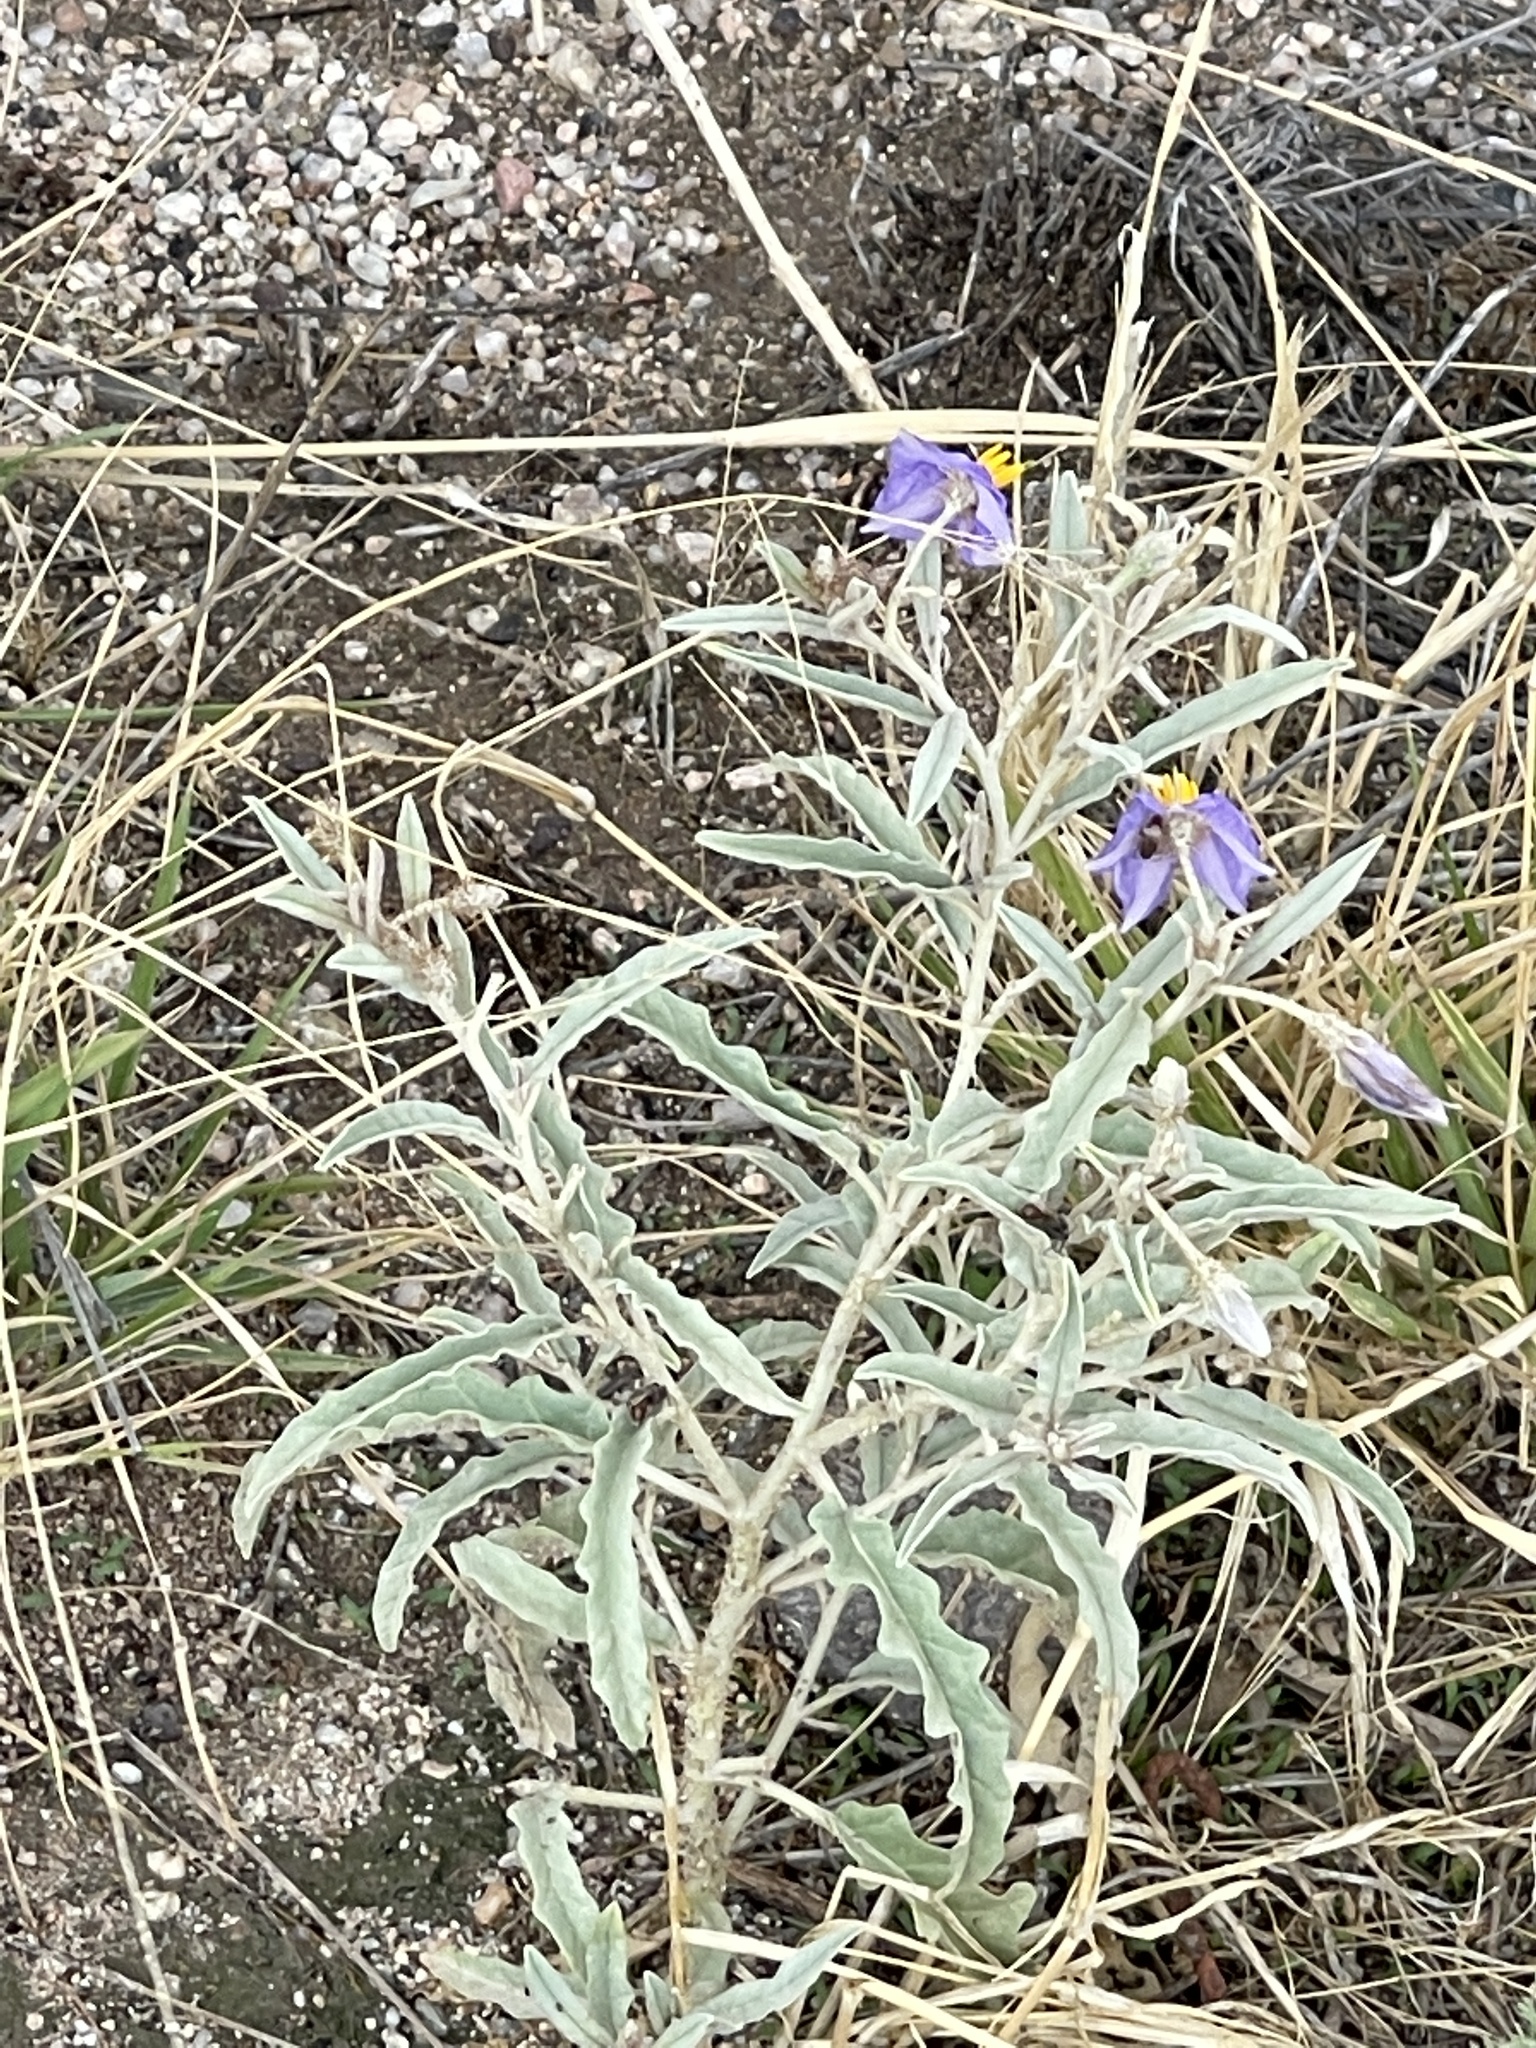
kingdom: Plantae
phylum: Tracheophyta
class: Magnoliopsida
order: Solanales
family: Solanaceae
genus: Solanum
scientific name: Solanum elaeagnifolium
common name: Silverleaf nightshade
